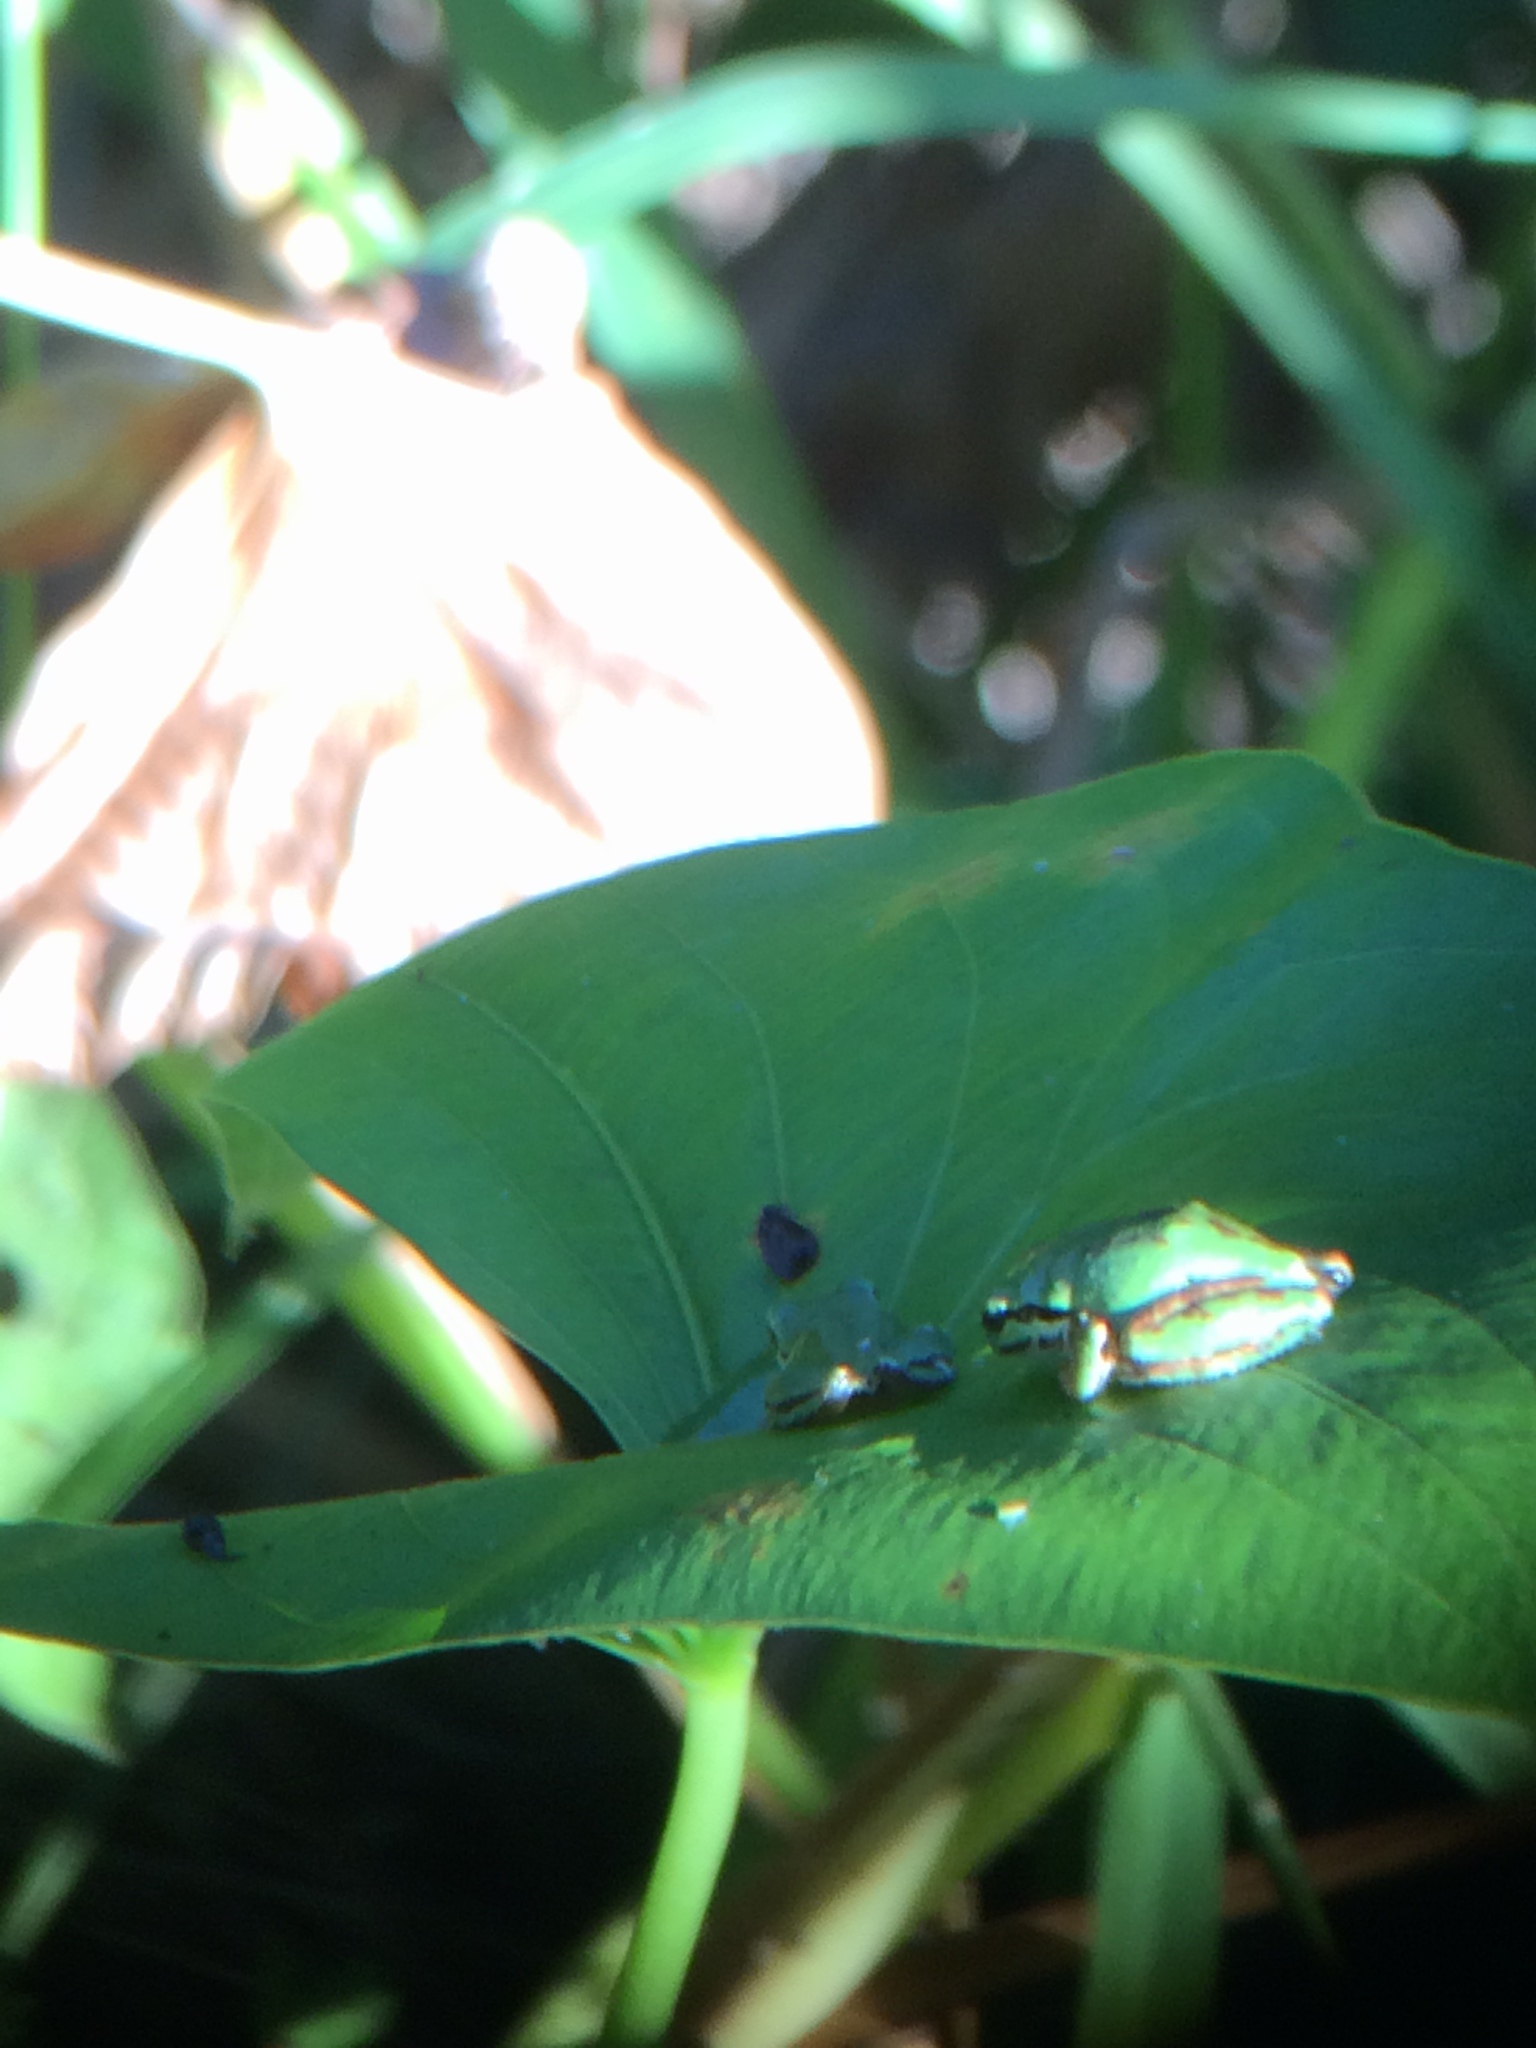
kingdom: Animalia
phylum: Chordata
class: Amphibia
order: Anura
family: Hylidae
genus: Pseudacris
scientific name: Pseudacris regilla
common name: Pacific chorus frog
